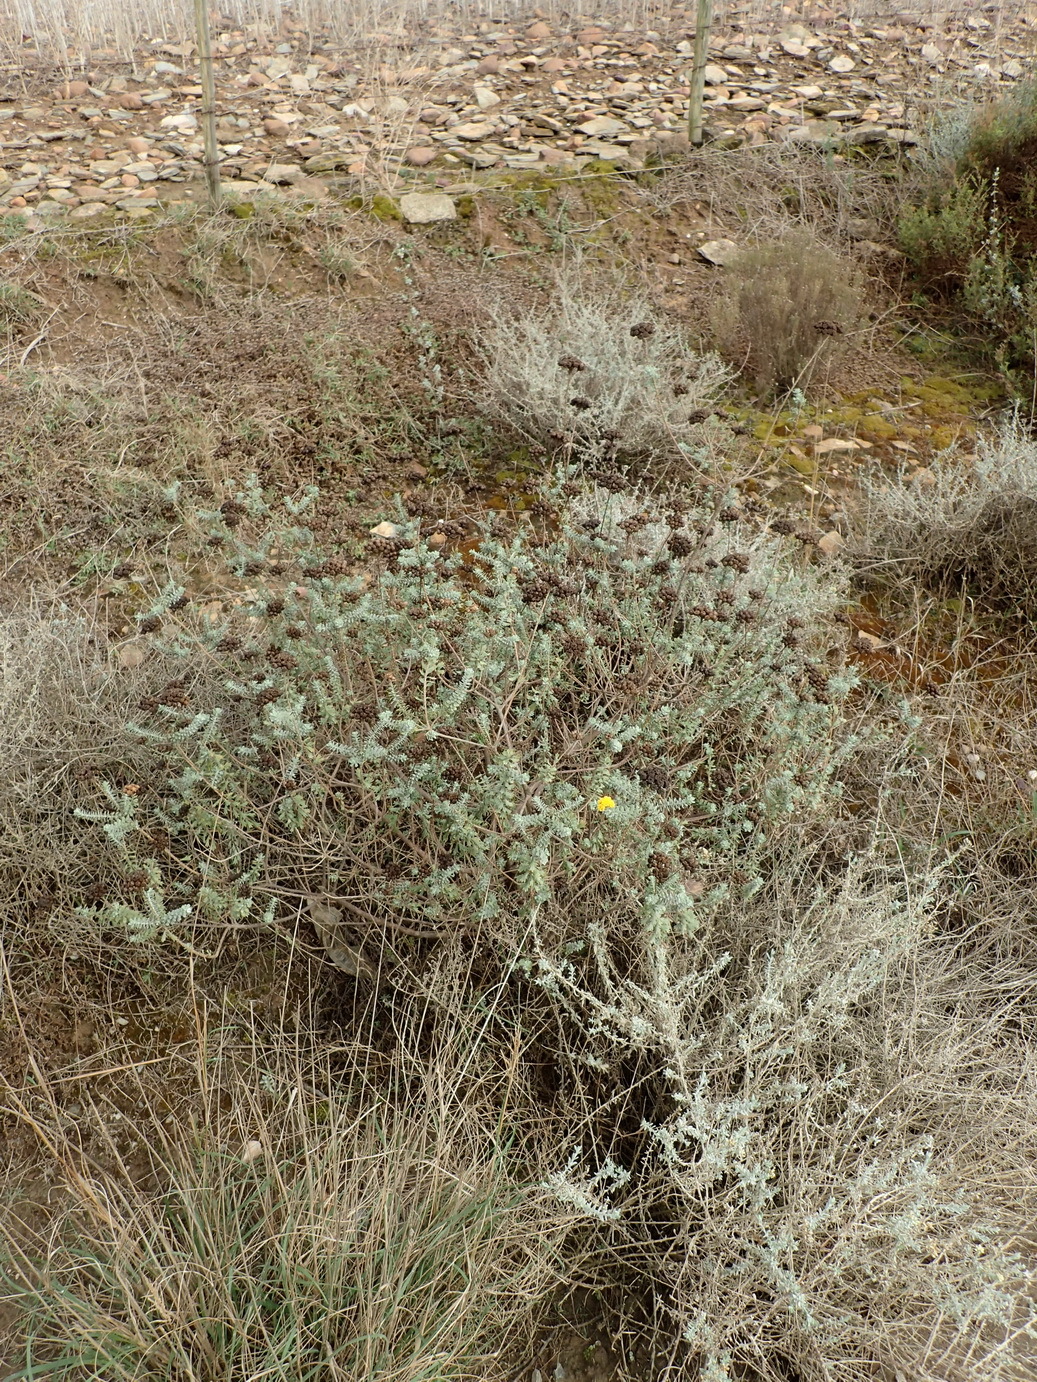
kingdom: Plantae
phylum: Tracheophyta
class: Magnoliopsida
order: Asterales
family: Asteraceae
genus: Athanasia
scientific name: Athanasia trifurcata
